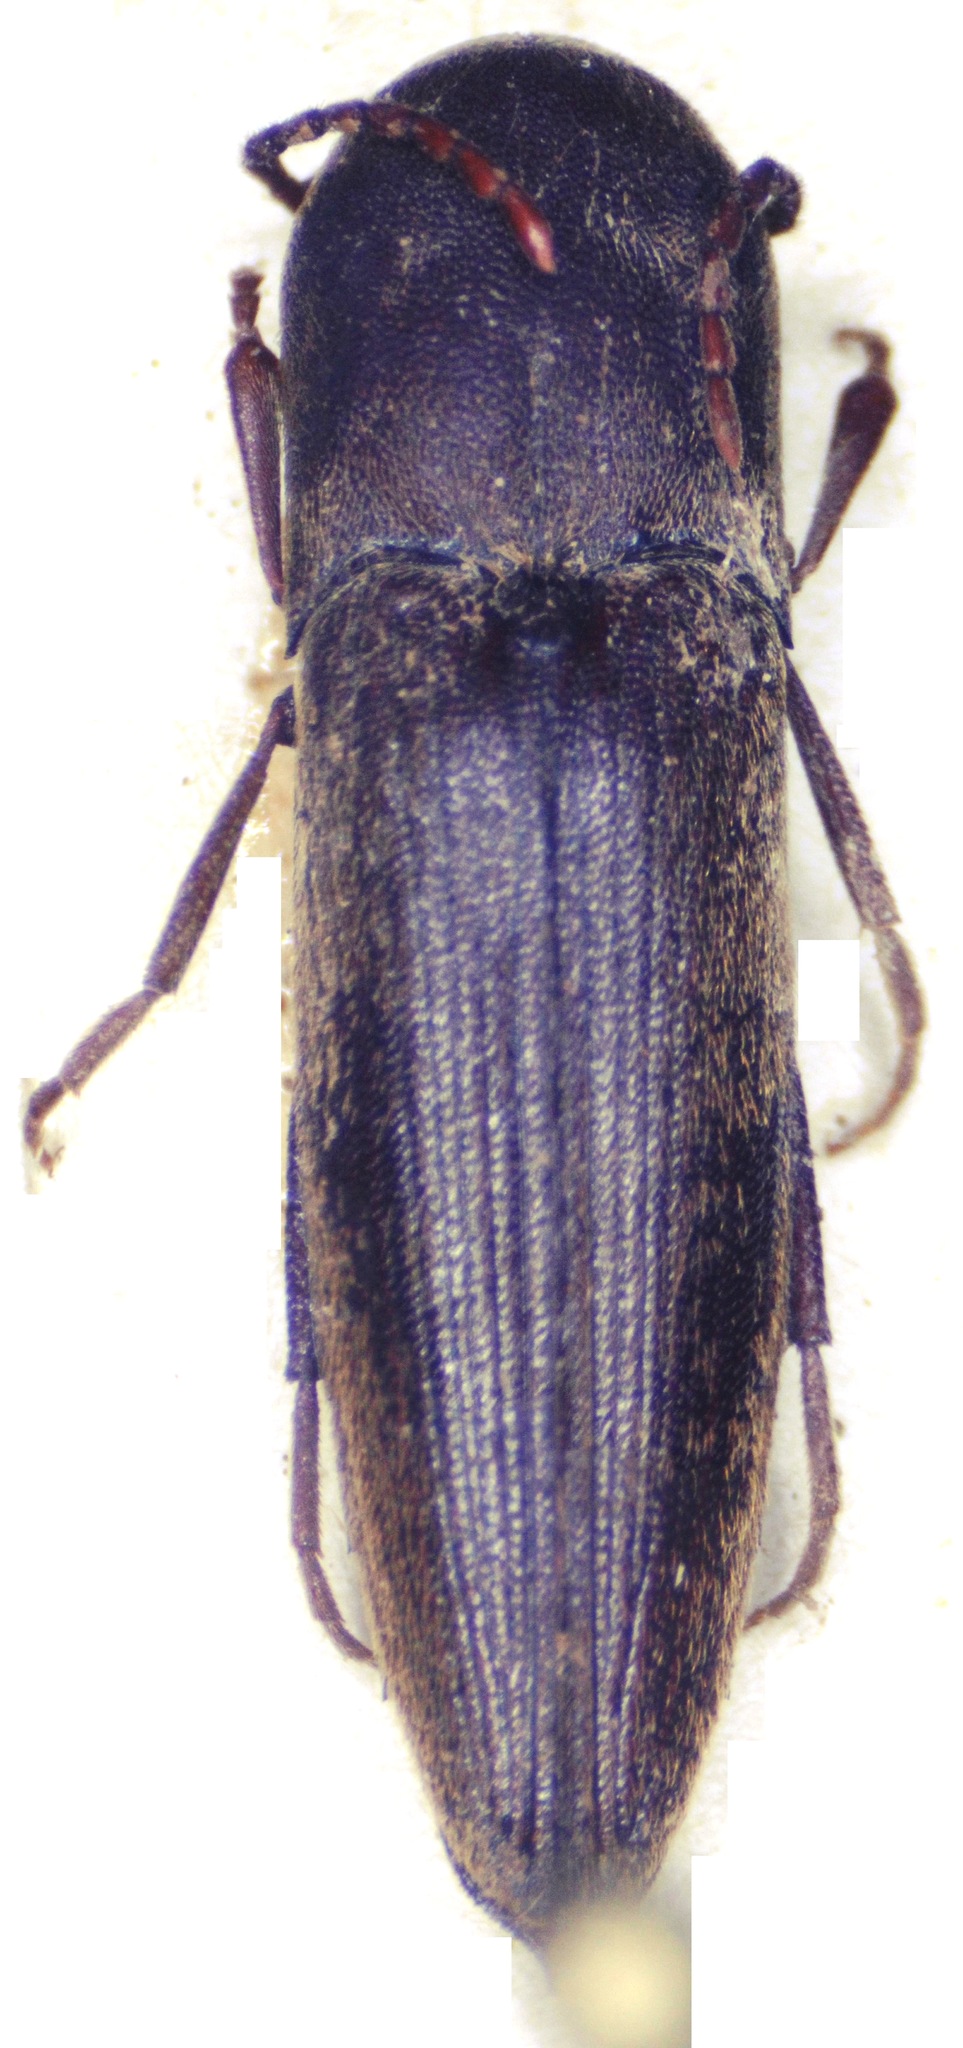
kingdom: Animalia
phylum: Arthropoda
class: Insecta
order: Coleoptera
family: Eucnemidae
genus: Nematodes
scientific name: Nematodes mexicanus
